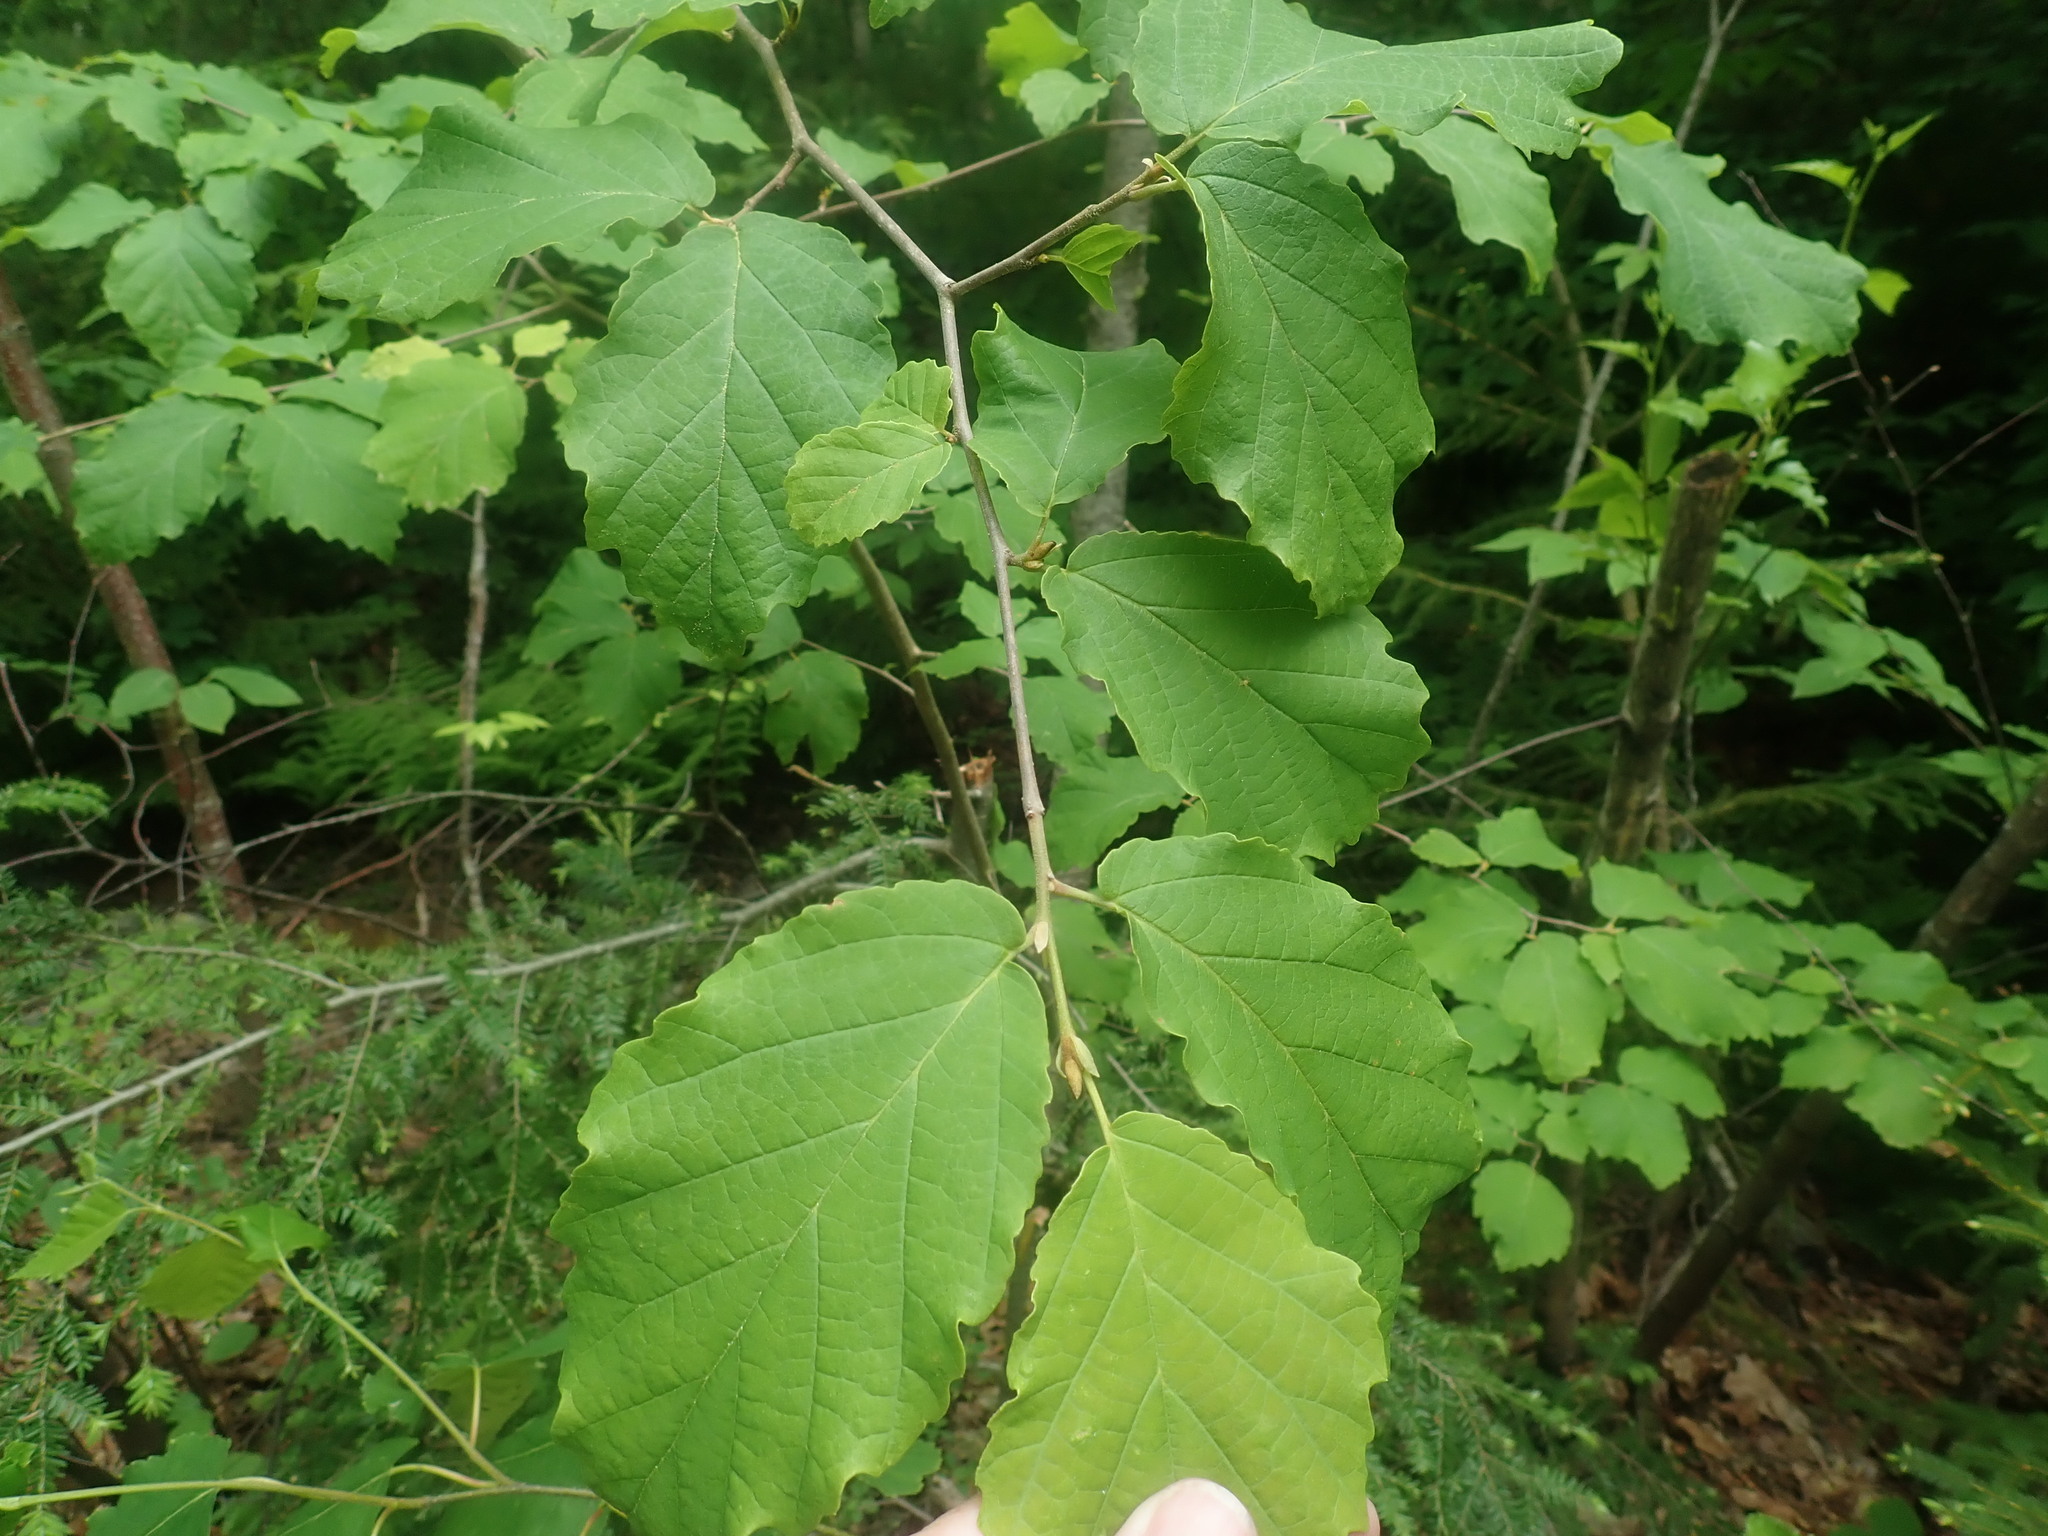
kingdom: Plantae
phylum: Tracheophyta
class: Magnoliopsida
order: Saxifragales
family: Hamamelidaceae
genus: Hamamelis
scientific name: Hamamelis virginiana
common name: Witch-hazel
